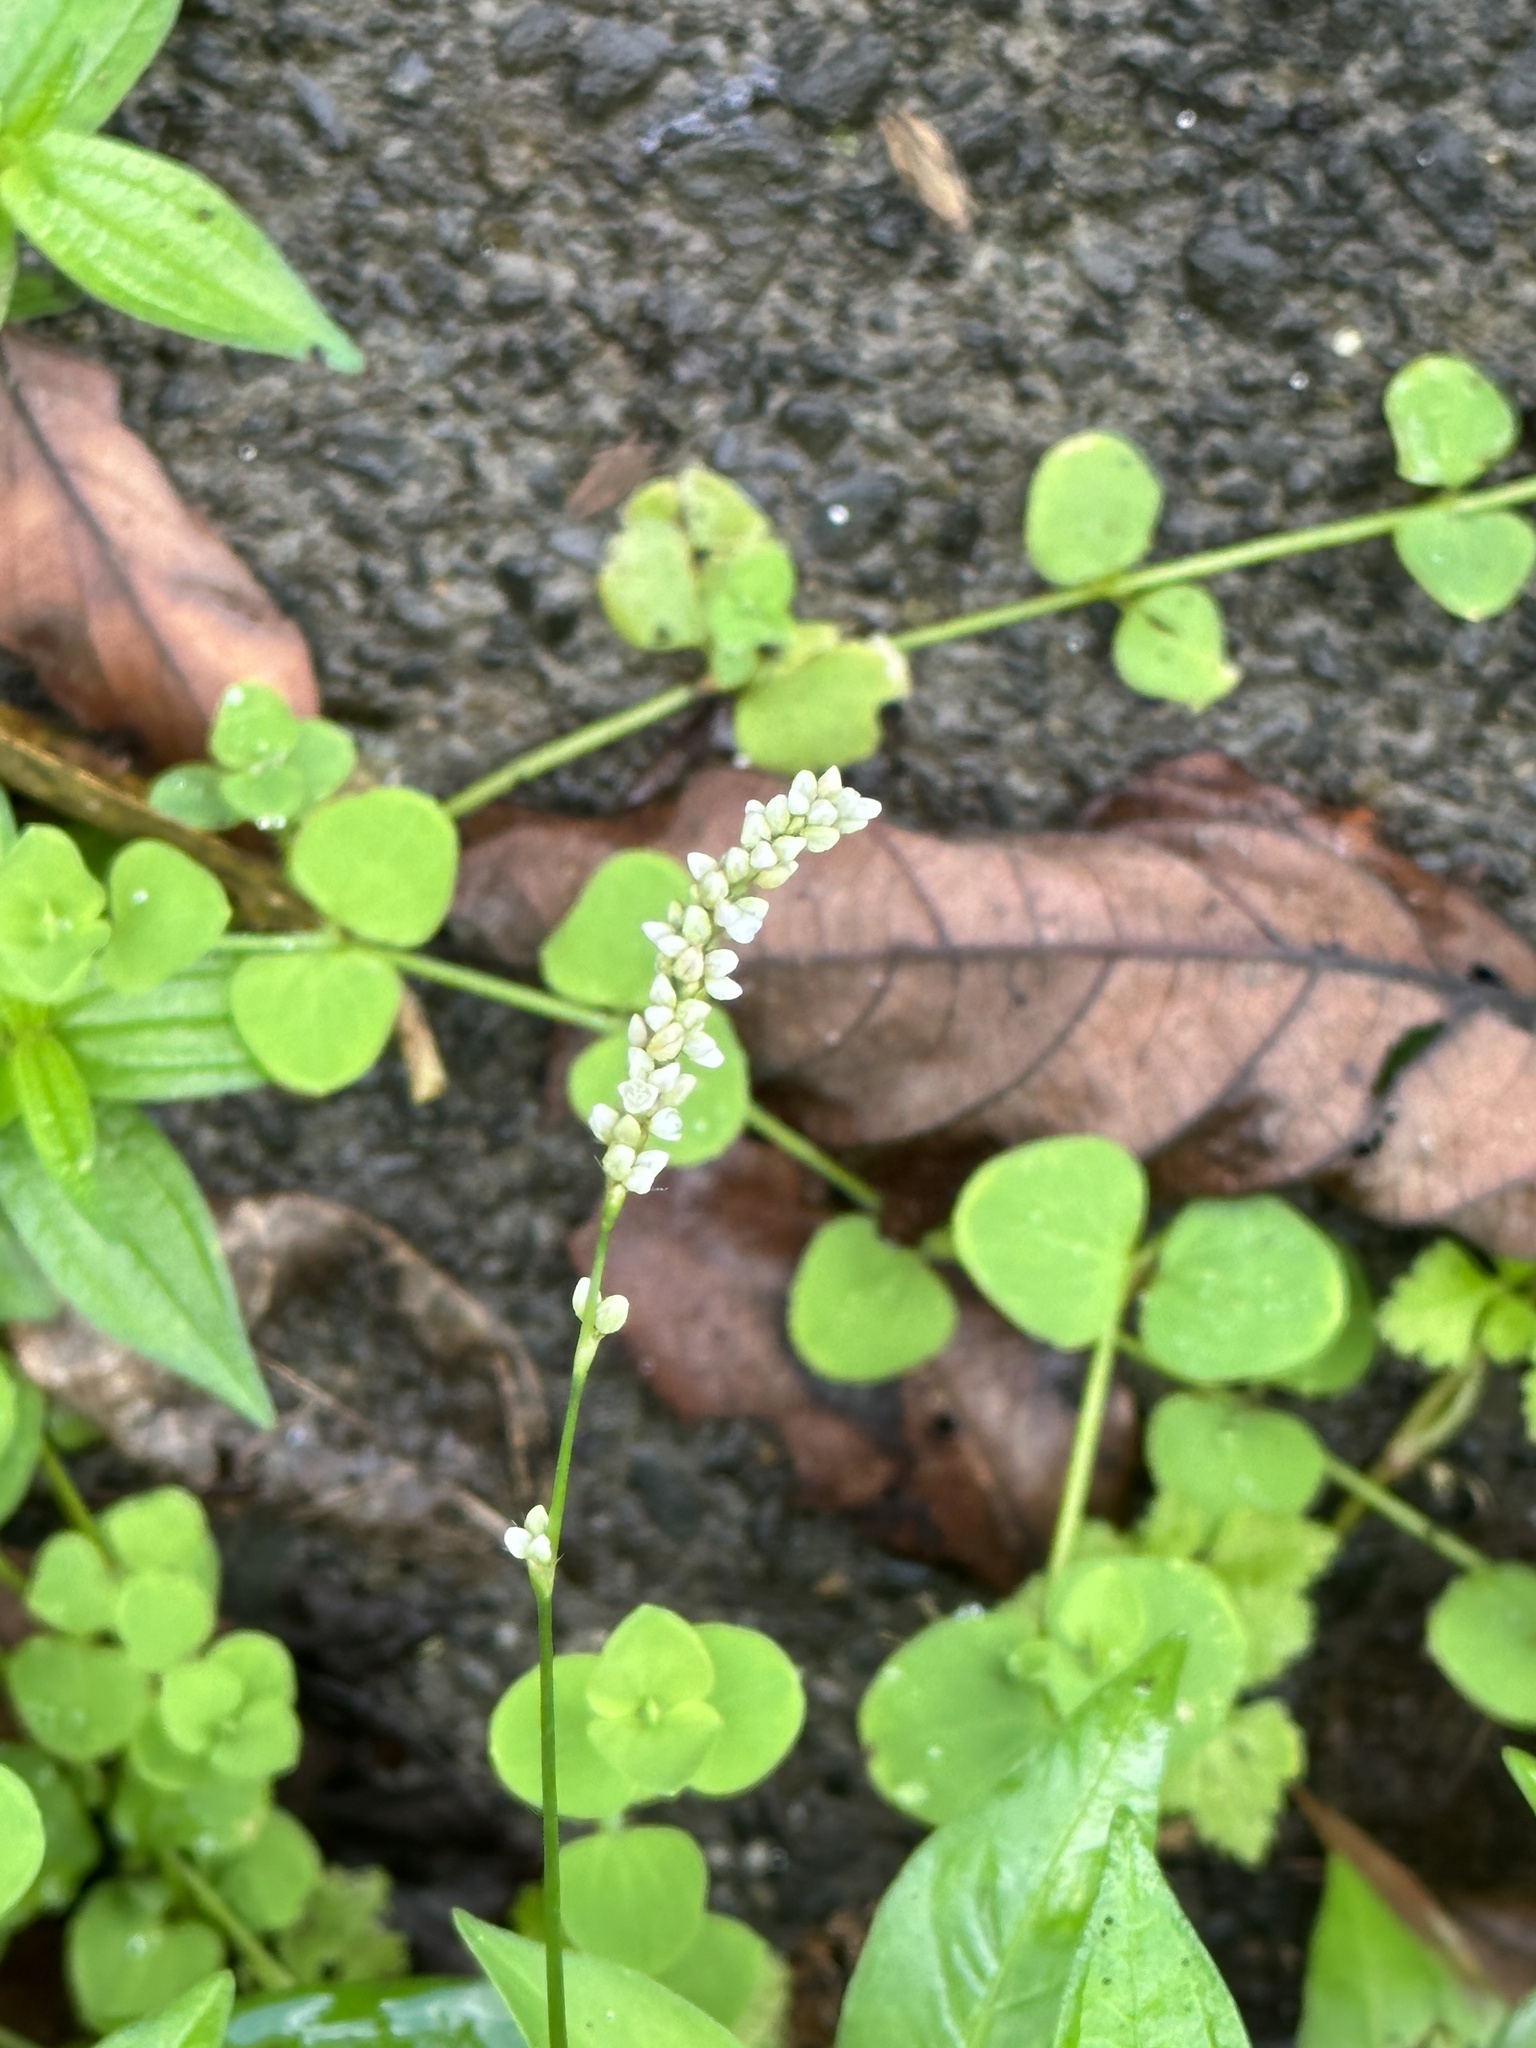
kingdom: Plantae
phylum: Tracheophyta
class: Magnoliopsida
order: Caryophyllales
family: Polygonaceae
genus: Persicaria
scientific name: Persicaria longiseta
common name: Bristly lady's-thumb
